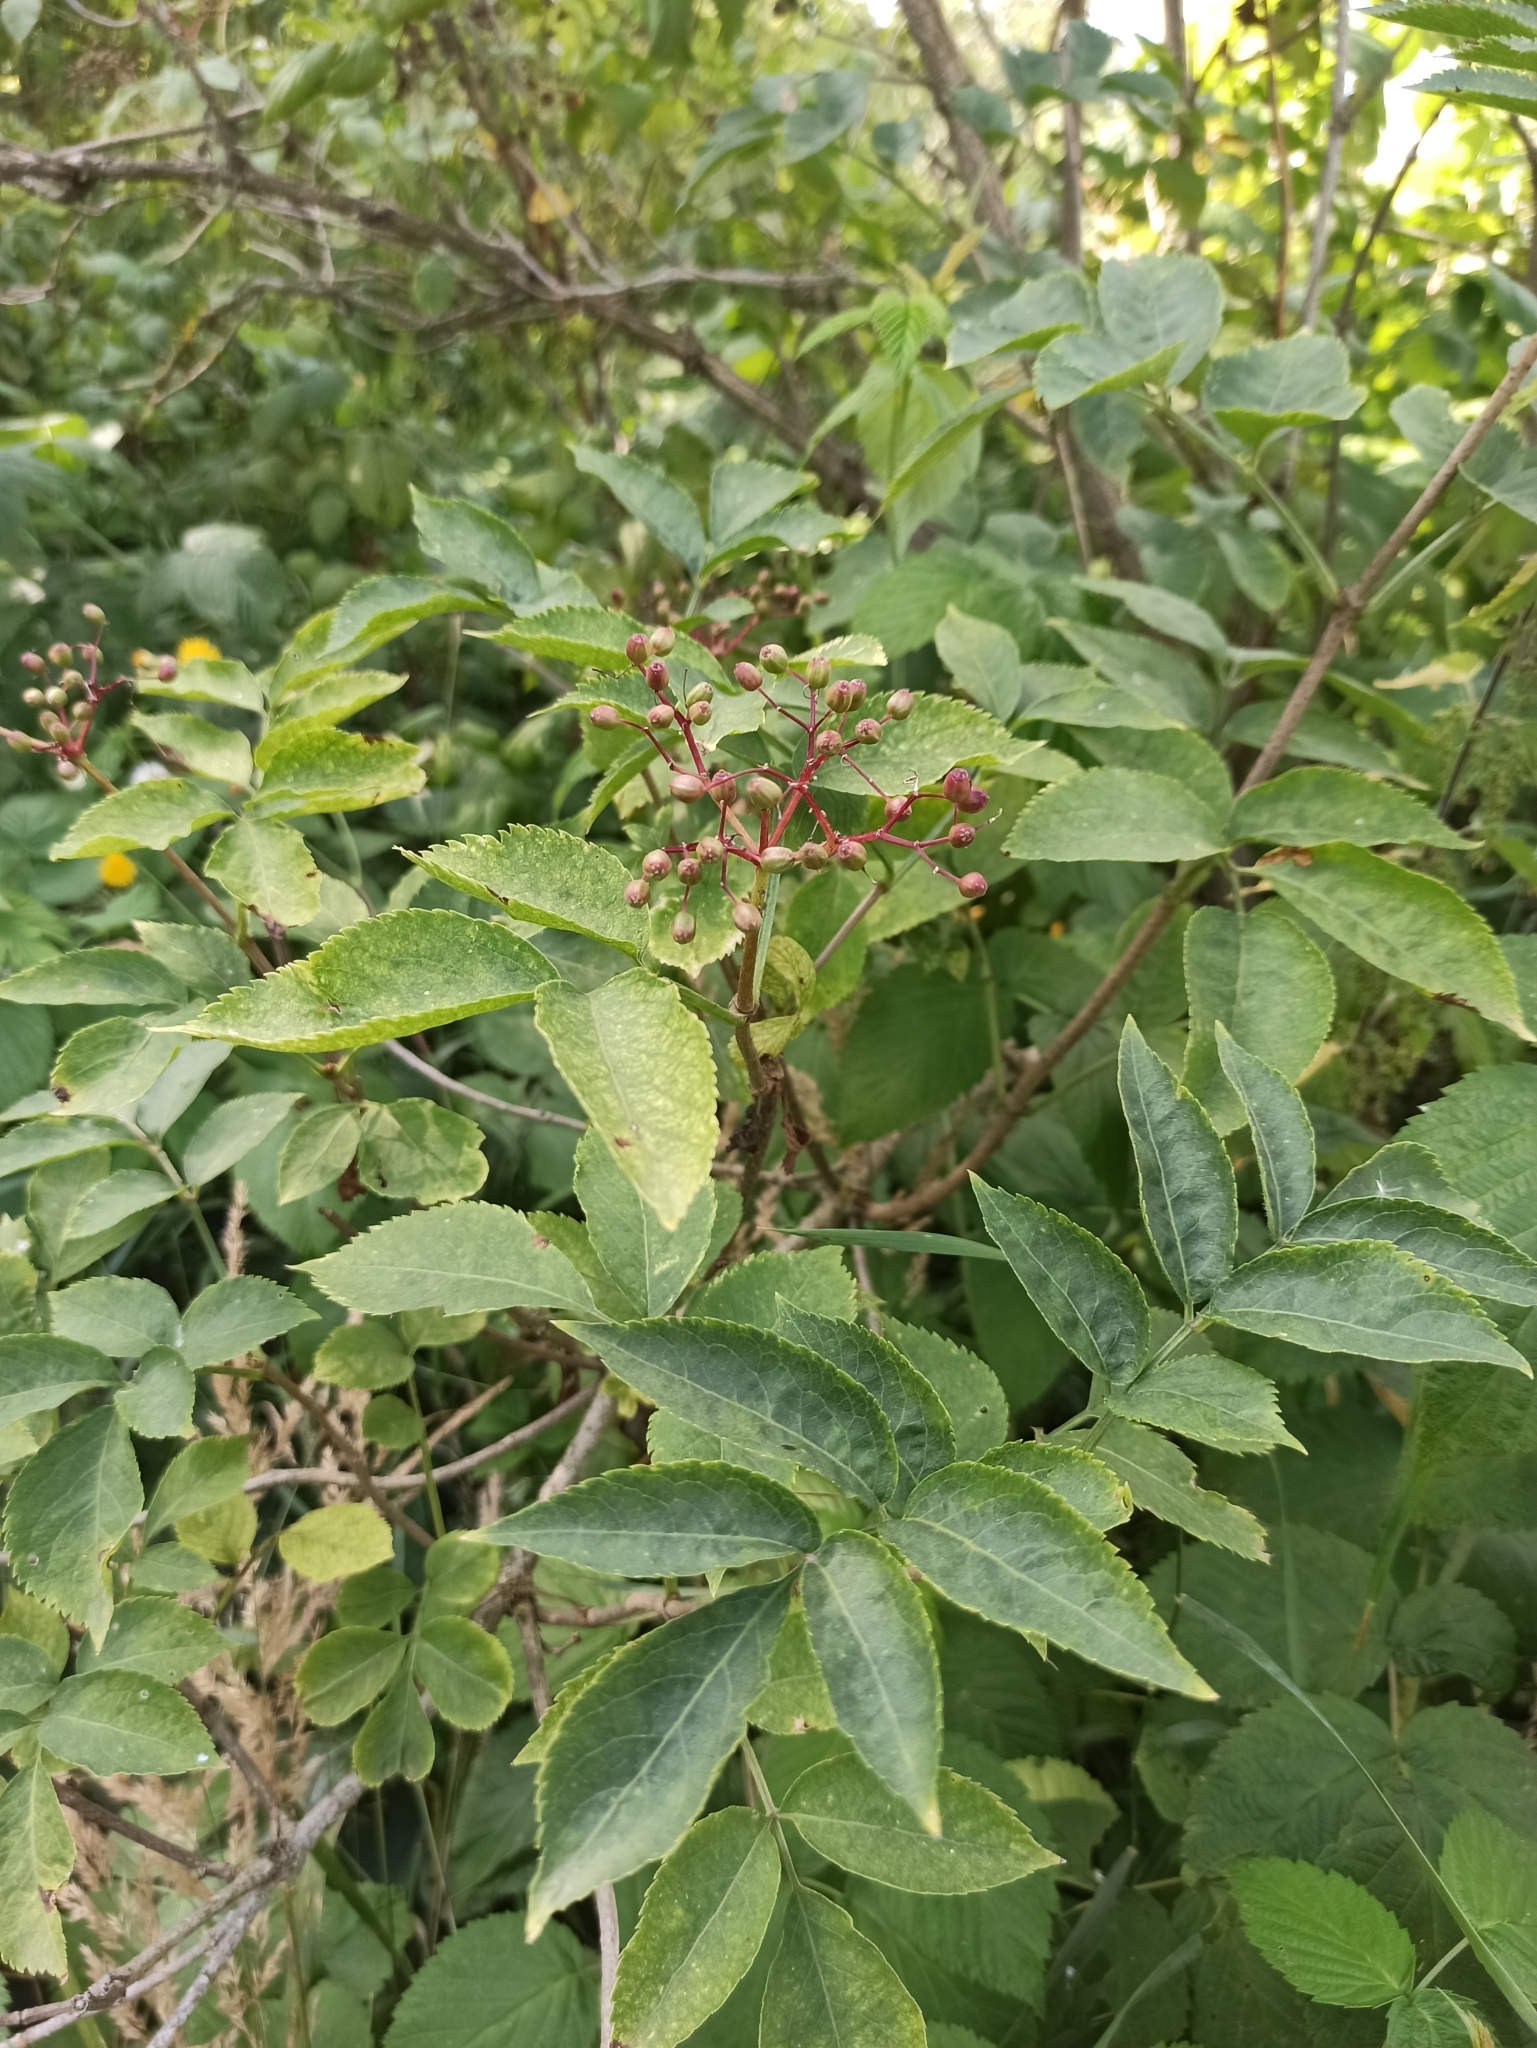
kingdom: Plantae
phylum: Tracheophyta
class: Magnoliopsida
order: Dipsacales
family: Viburnaceae
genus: Sambucus
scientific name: Sambucus nigra
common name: Elder
